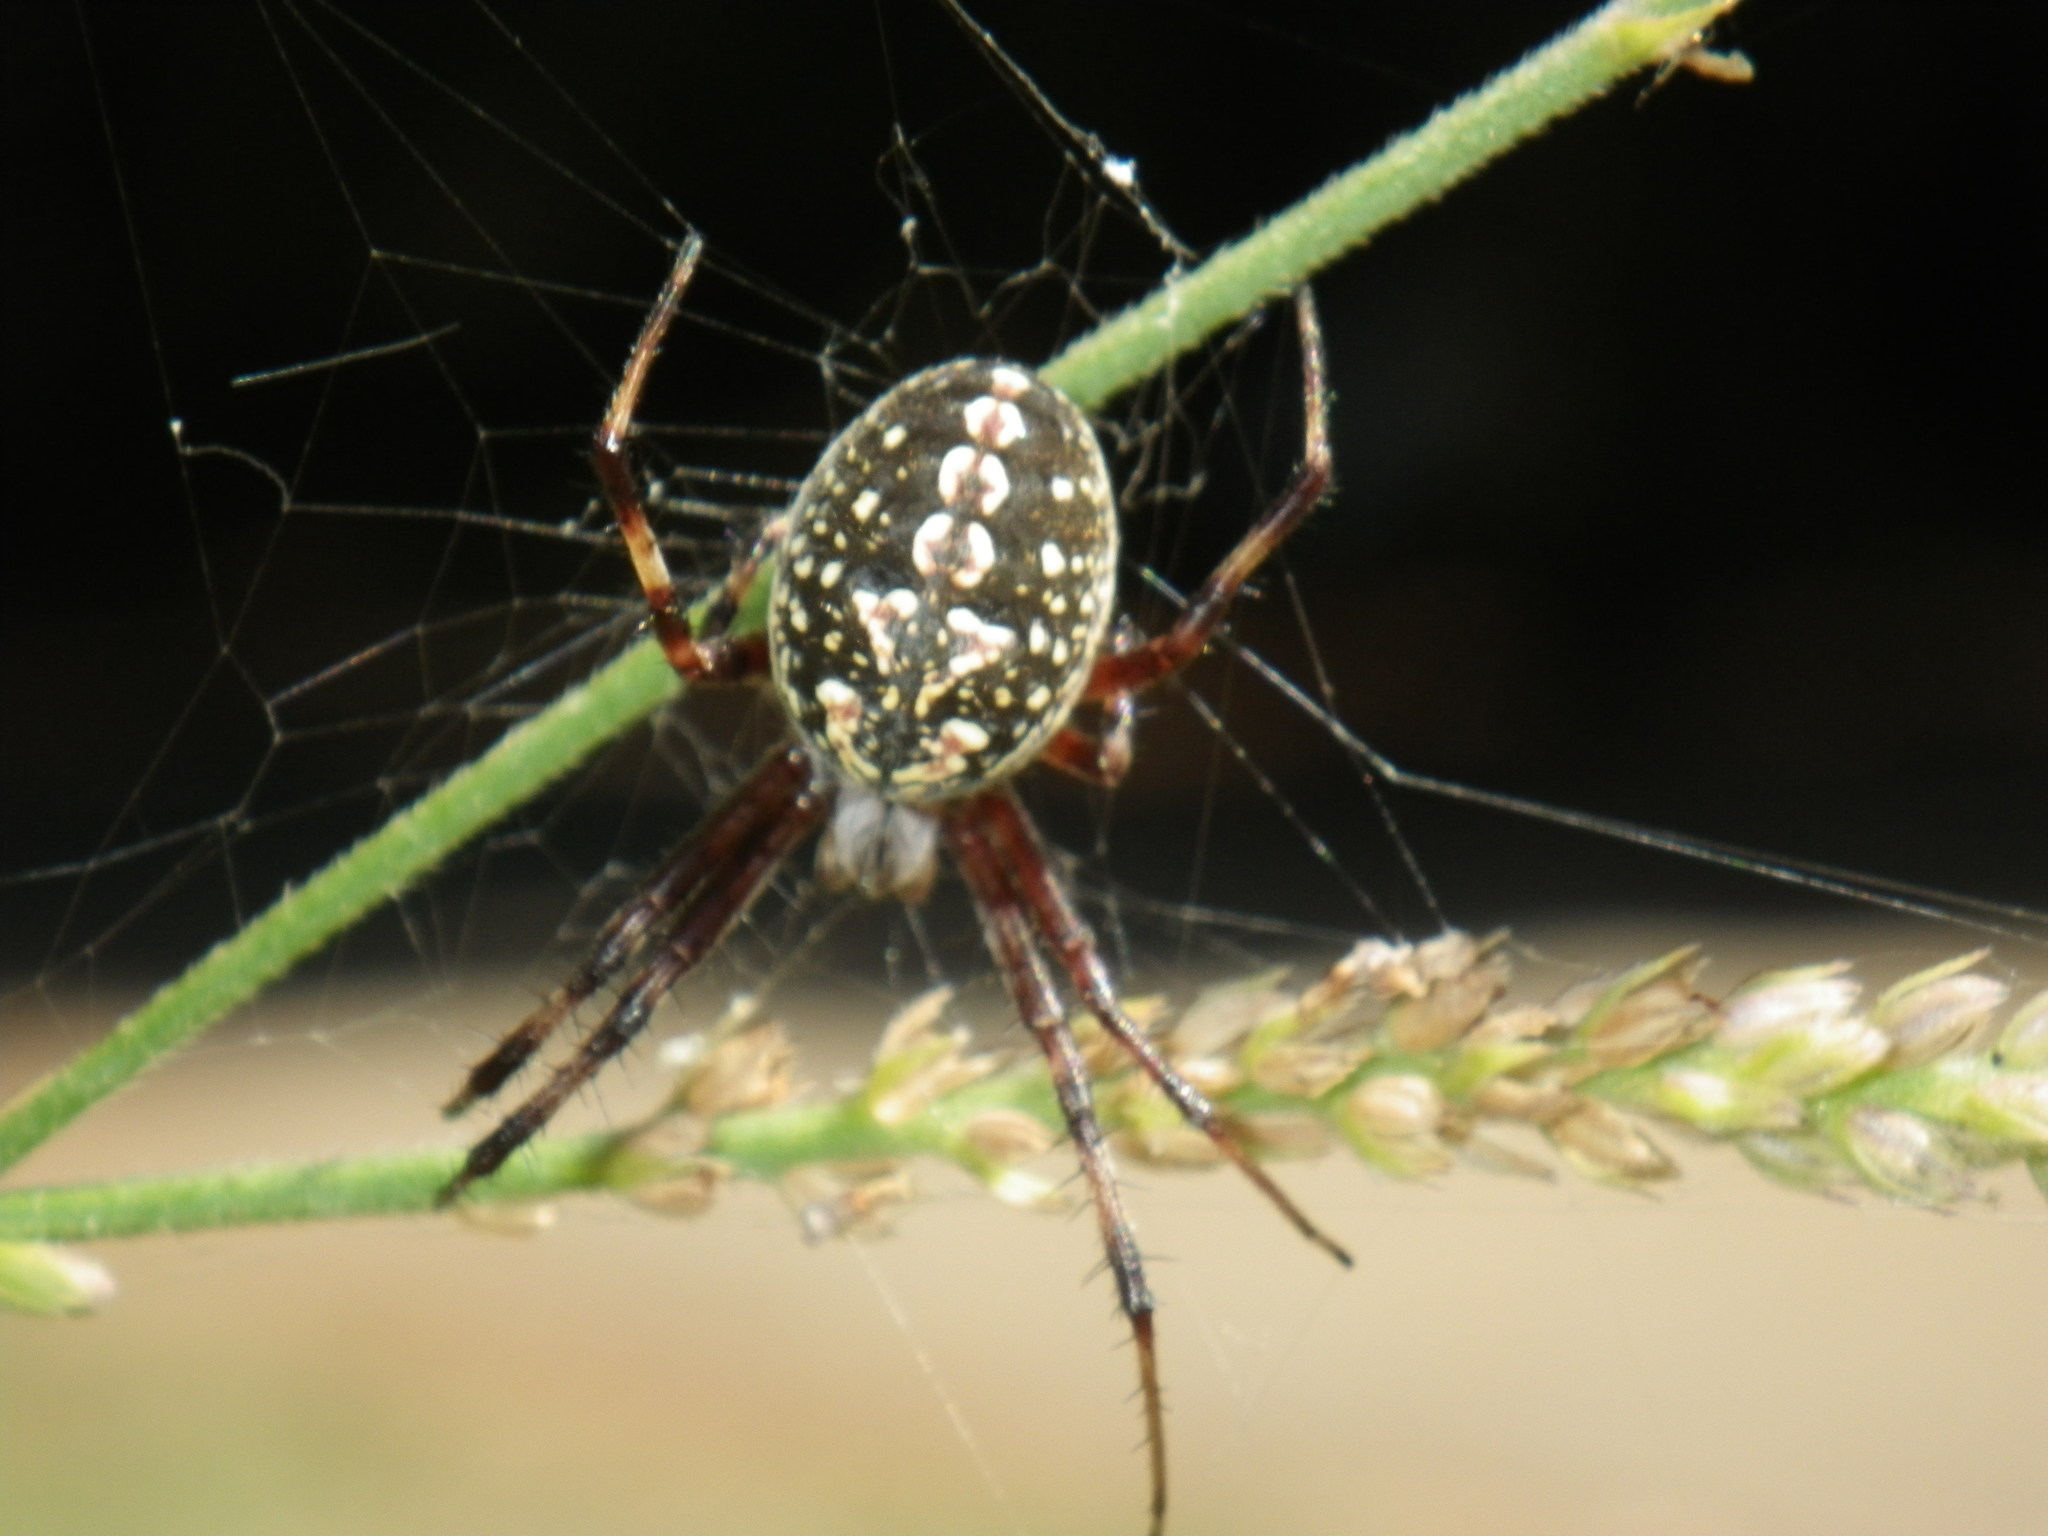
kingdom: Animalia
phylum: Arthropoda
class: Arachnida
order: Araneae
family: Araneidae
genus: Neoscona
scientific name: Neoscona oaxacensis
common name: Orb weavers
